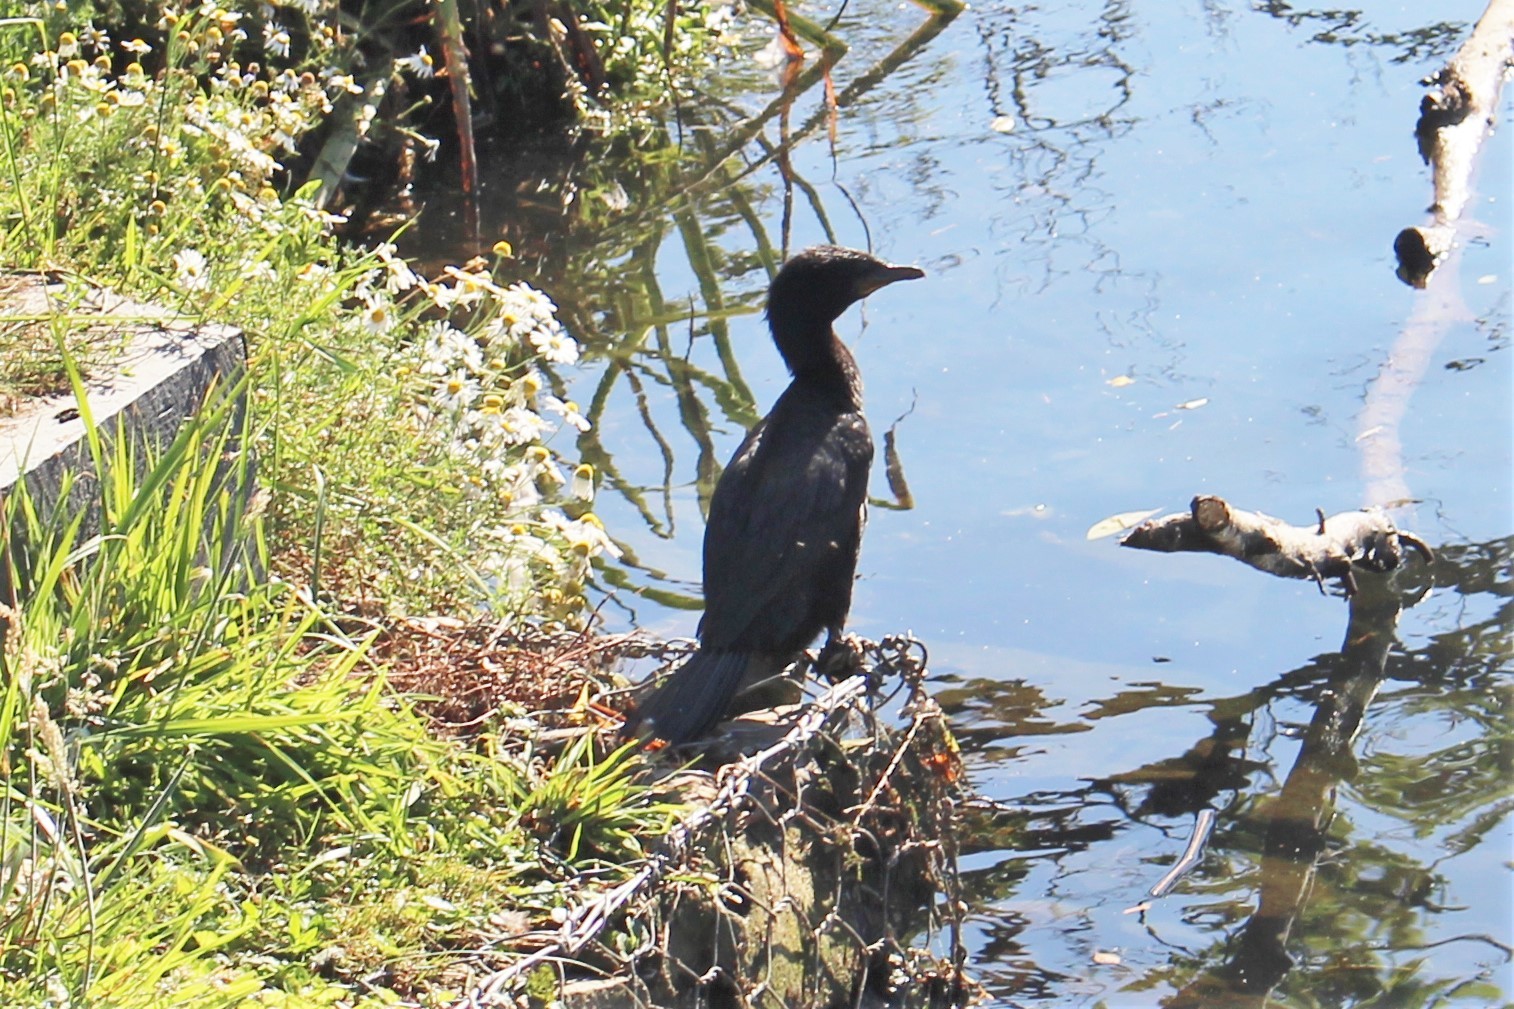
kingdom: Animalia
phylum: Chordata
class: Aves
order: Suliformes
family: Phalacrocoracidae
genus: Microcarbo
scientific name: Microcarbo melanoleucos
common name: Little pied cormorant
